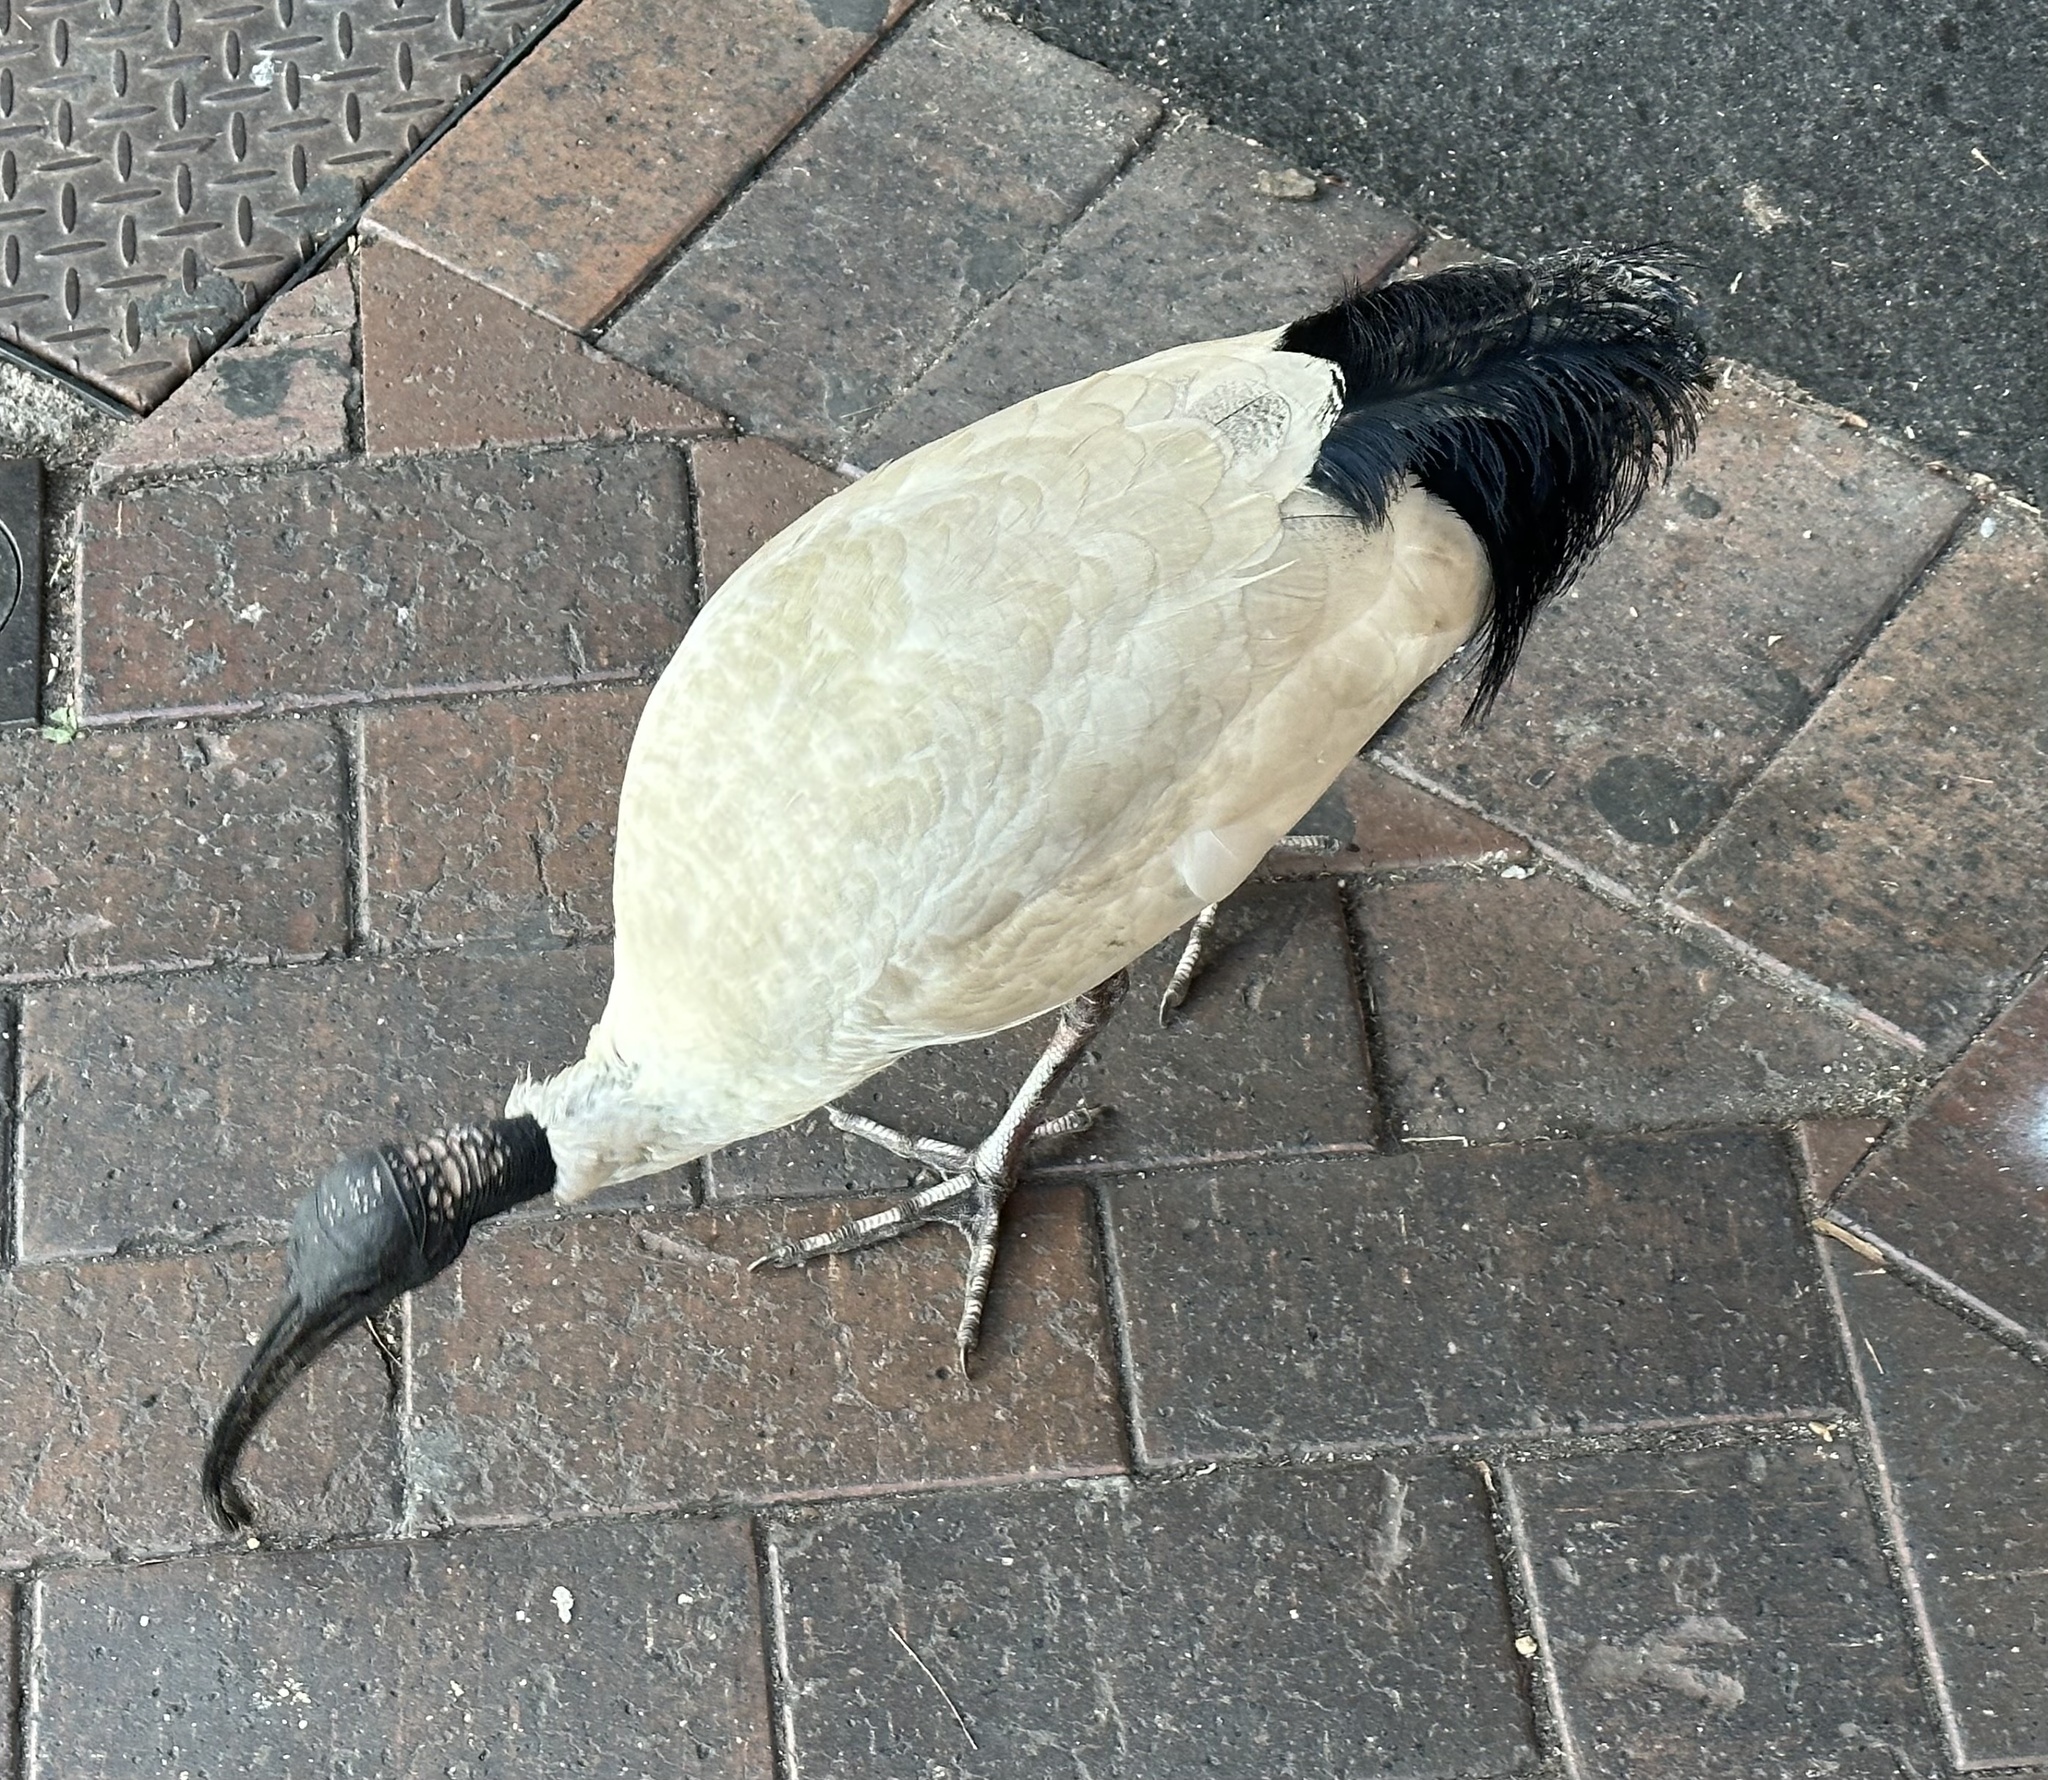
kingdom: Animalia
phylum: Chordata
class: Aves
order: Pelecaniformes
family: Threskiornithidae
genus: Threskiornis
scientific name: Threskiornis molucca
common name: Australian white ibis
